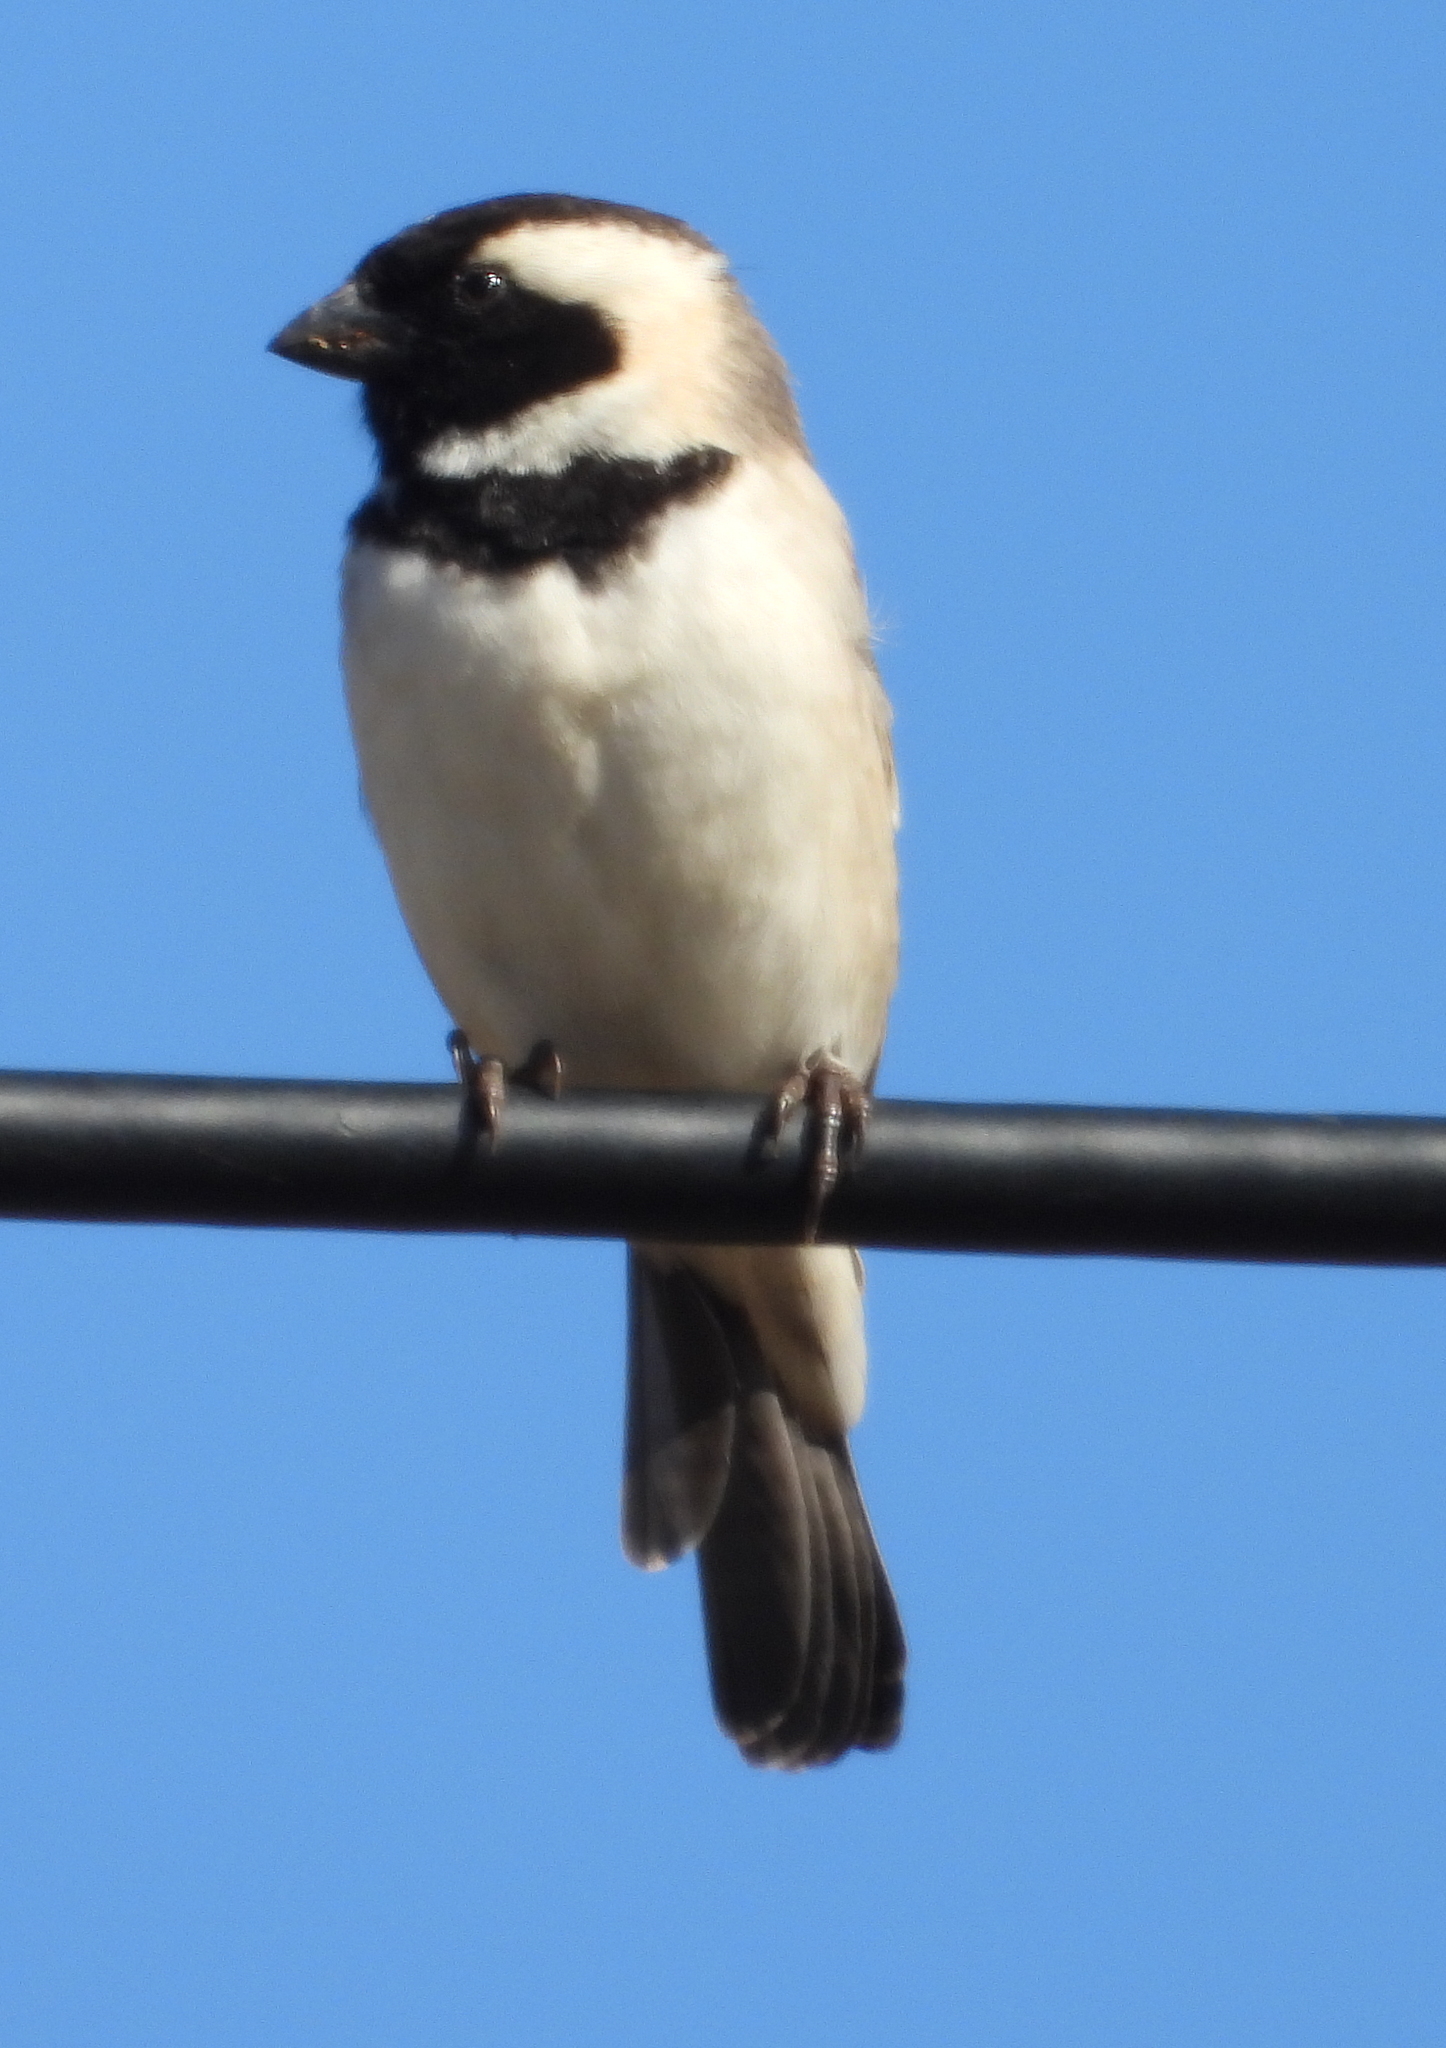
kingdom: Animalia
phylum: Chordata
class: Aves
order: Passeriformes
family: Passeridae
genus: Passer
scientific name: Passer melanurus
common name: Cape sparrow
